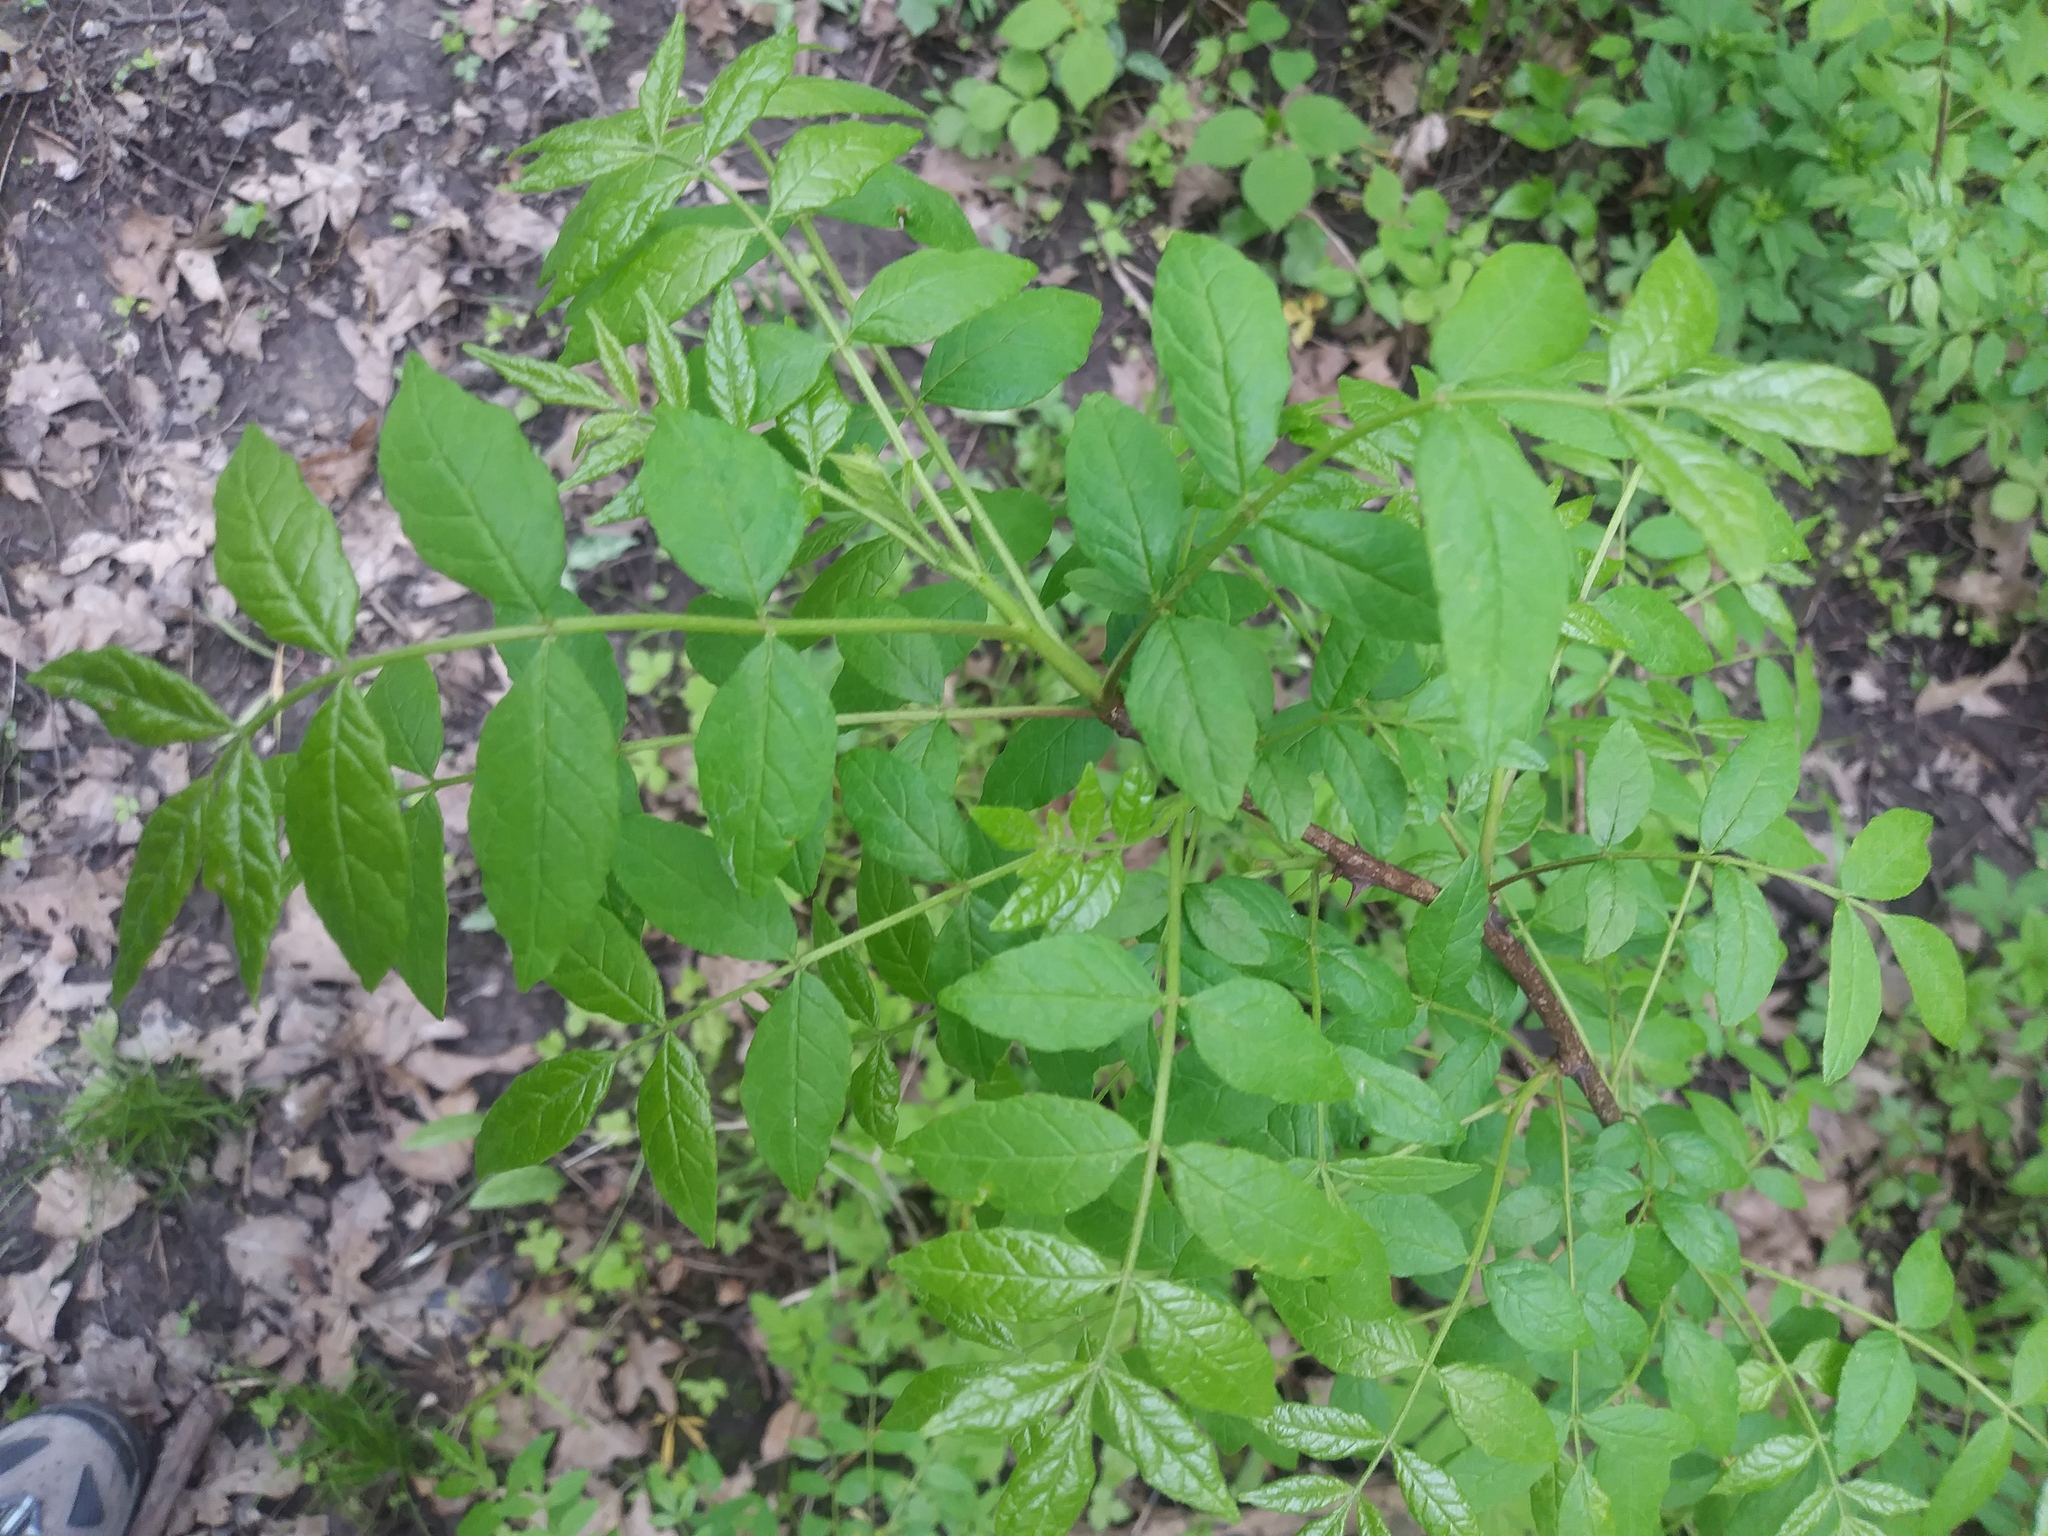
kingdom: Plantae
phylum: Tracheophyta
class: Magnoliopsida
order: Sapindales
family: Rutaceae
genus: Zanthoxylum
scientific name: Zanthoxylum americanum
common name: Northern prickly-ash
